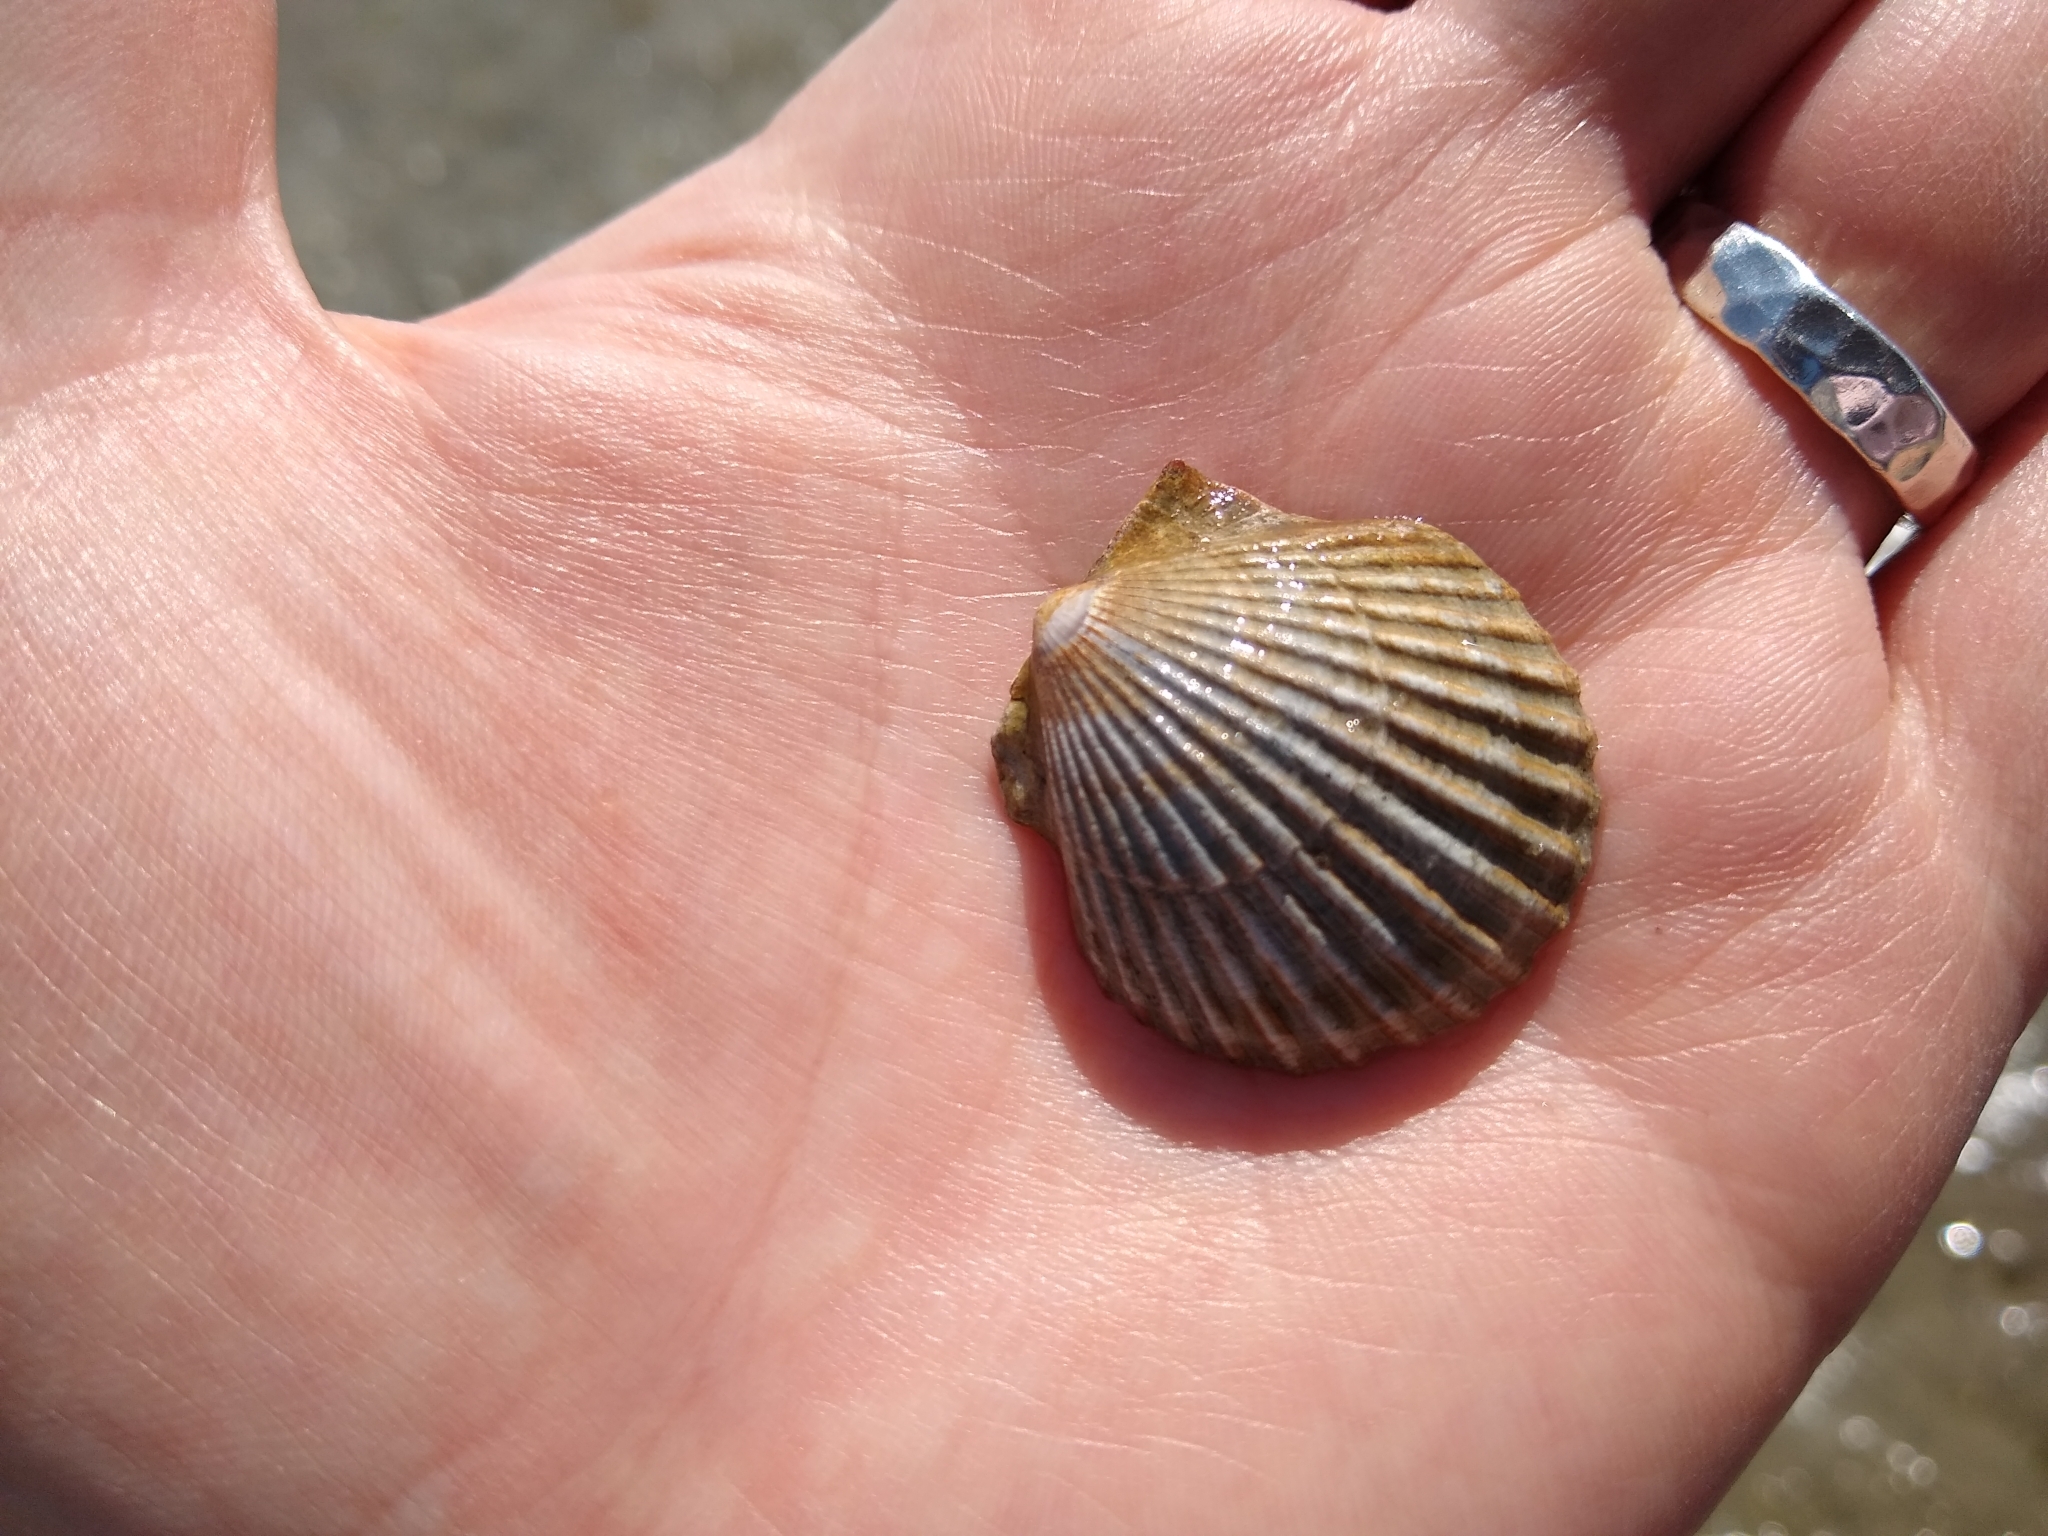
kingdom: Animalia
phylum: Mollusca
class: Bivalvia
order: Pectinida
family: Pectinidae
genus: Argopecten
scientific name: Argopecten irradians
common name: Atlantic bay scallop
